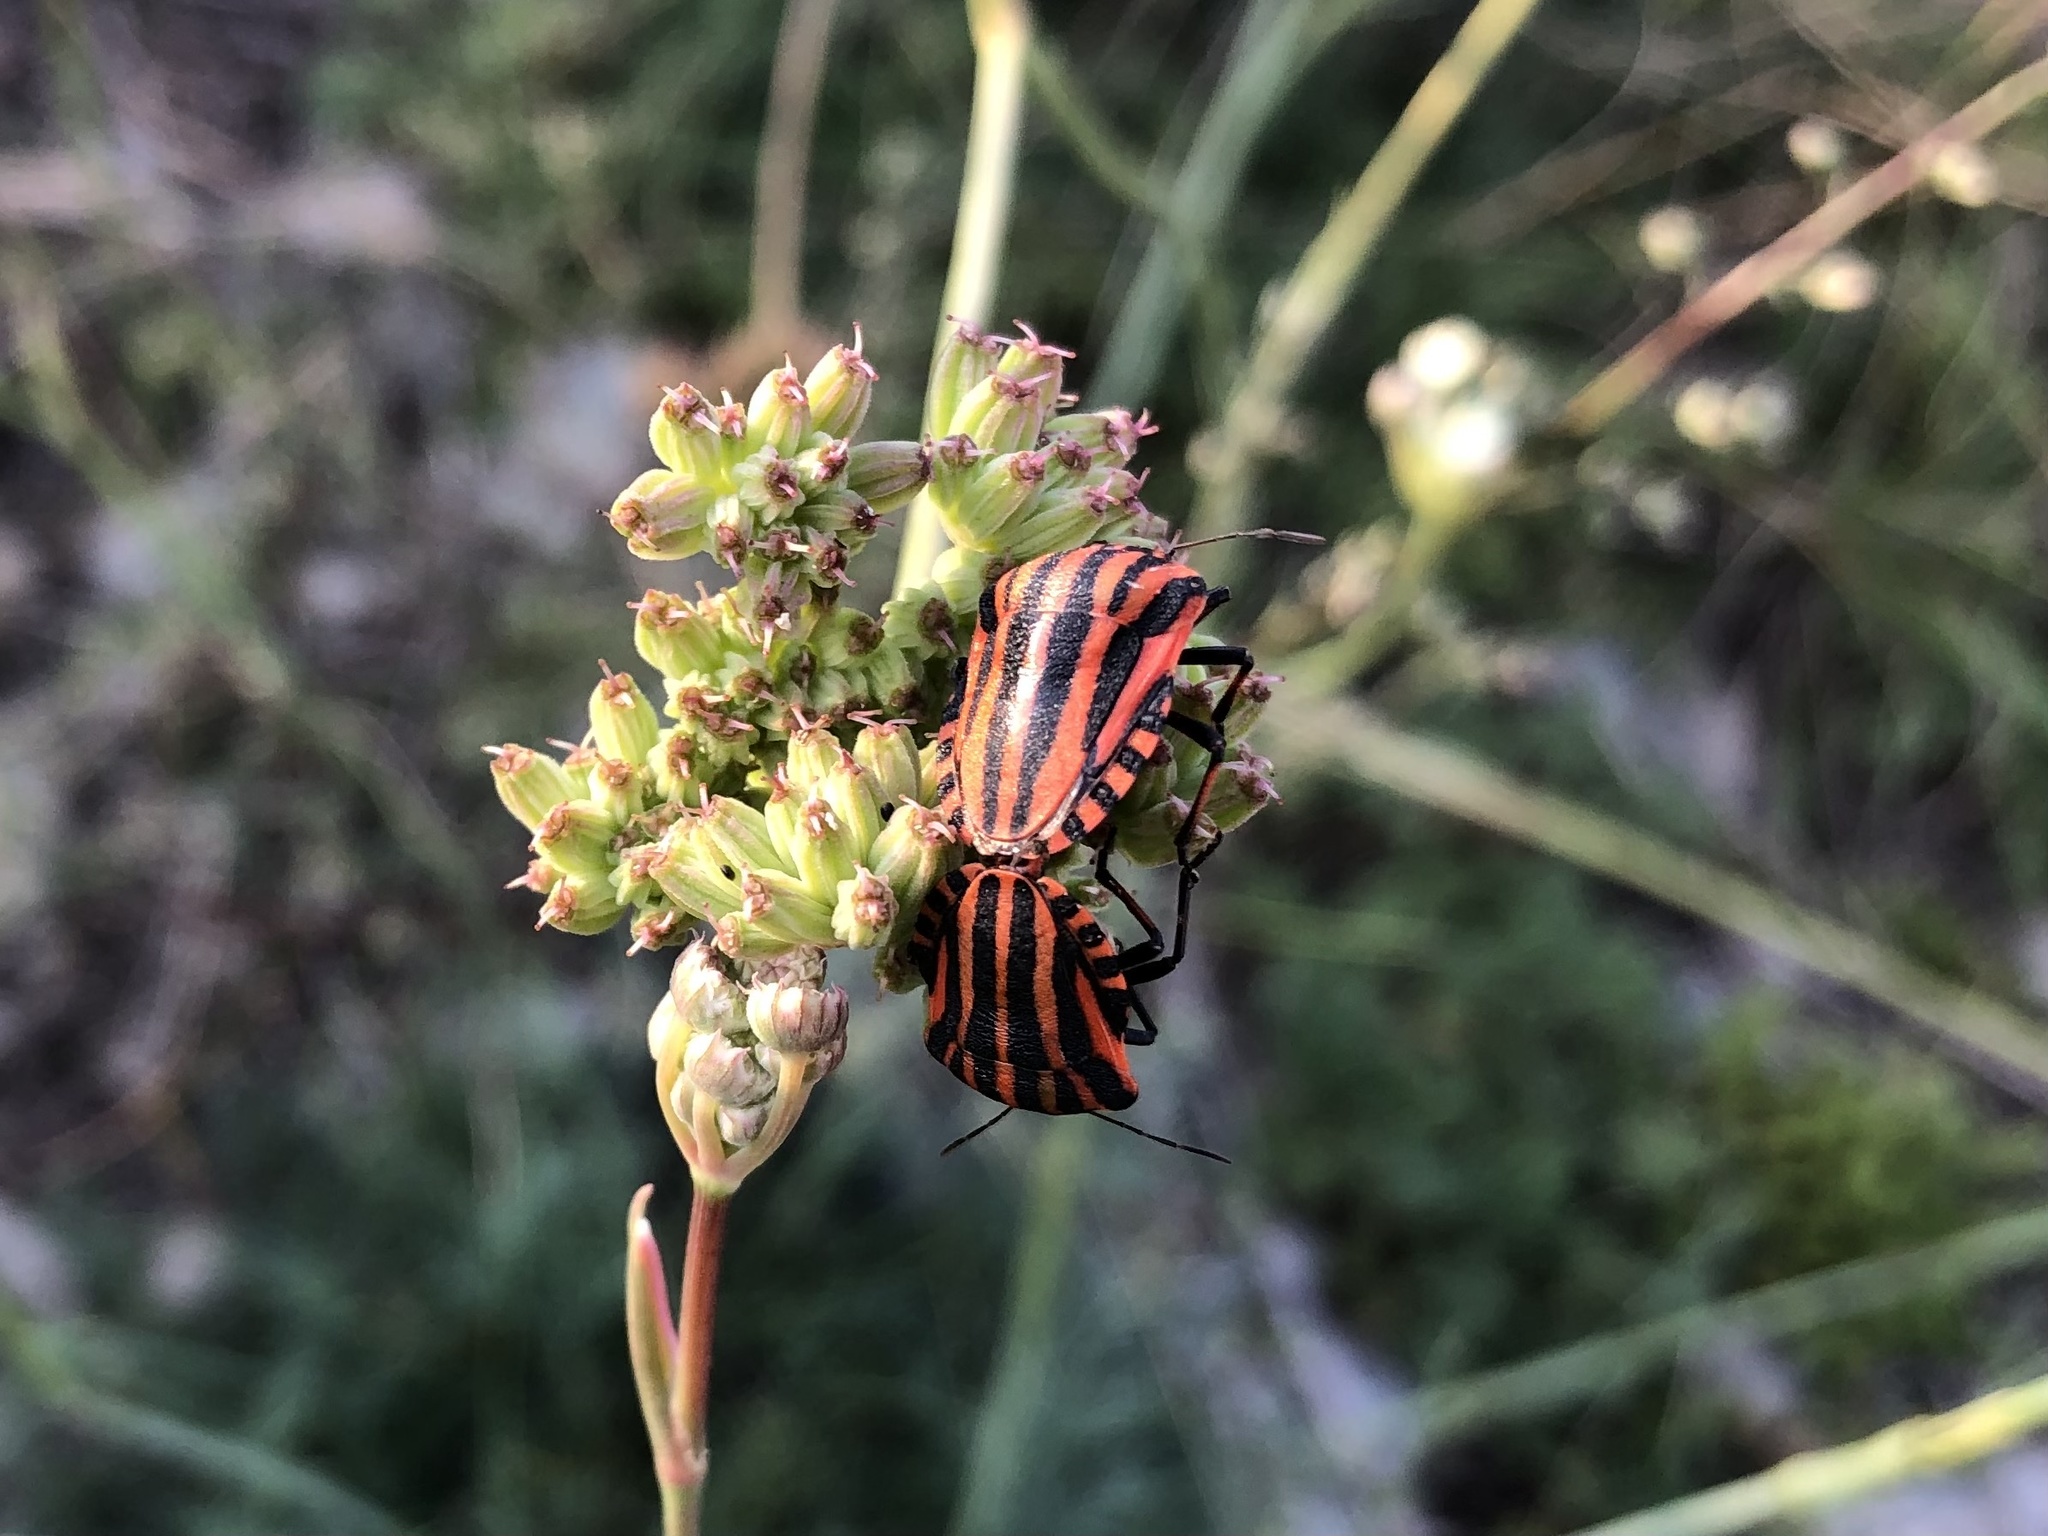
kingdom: Animalia
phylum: Arthropoda
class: Insecta
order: Hemiptera
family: Pentatomidae
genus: Graphosoma
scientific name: Graphosoma italicum
